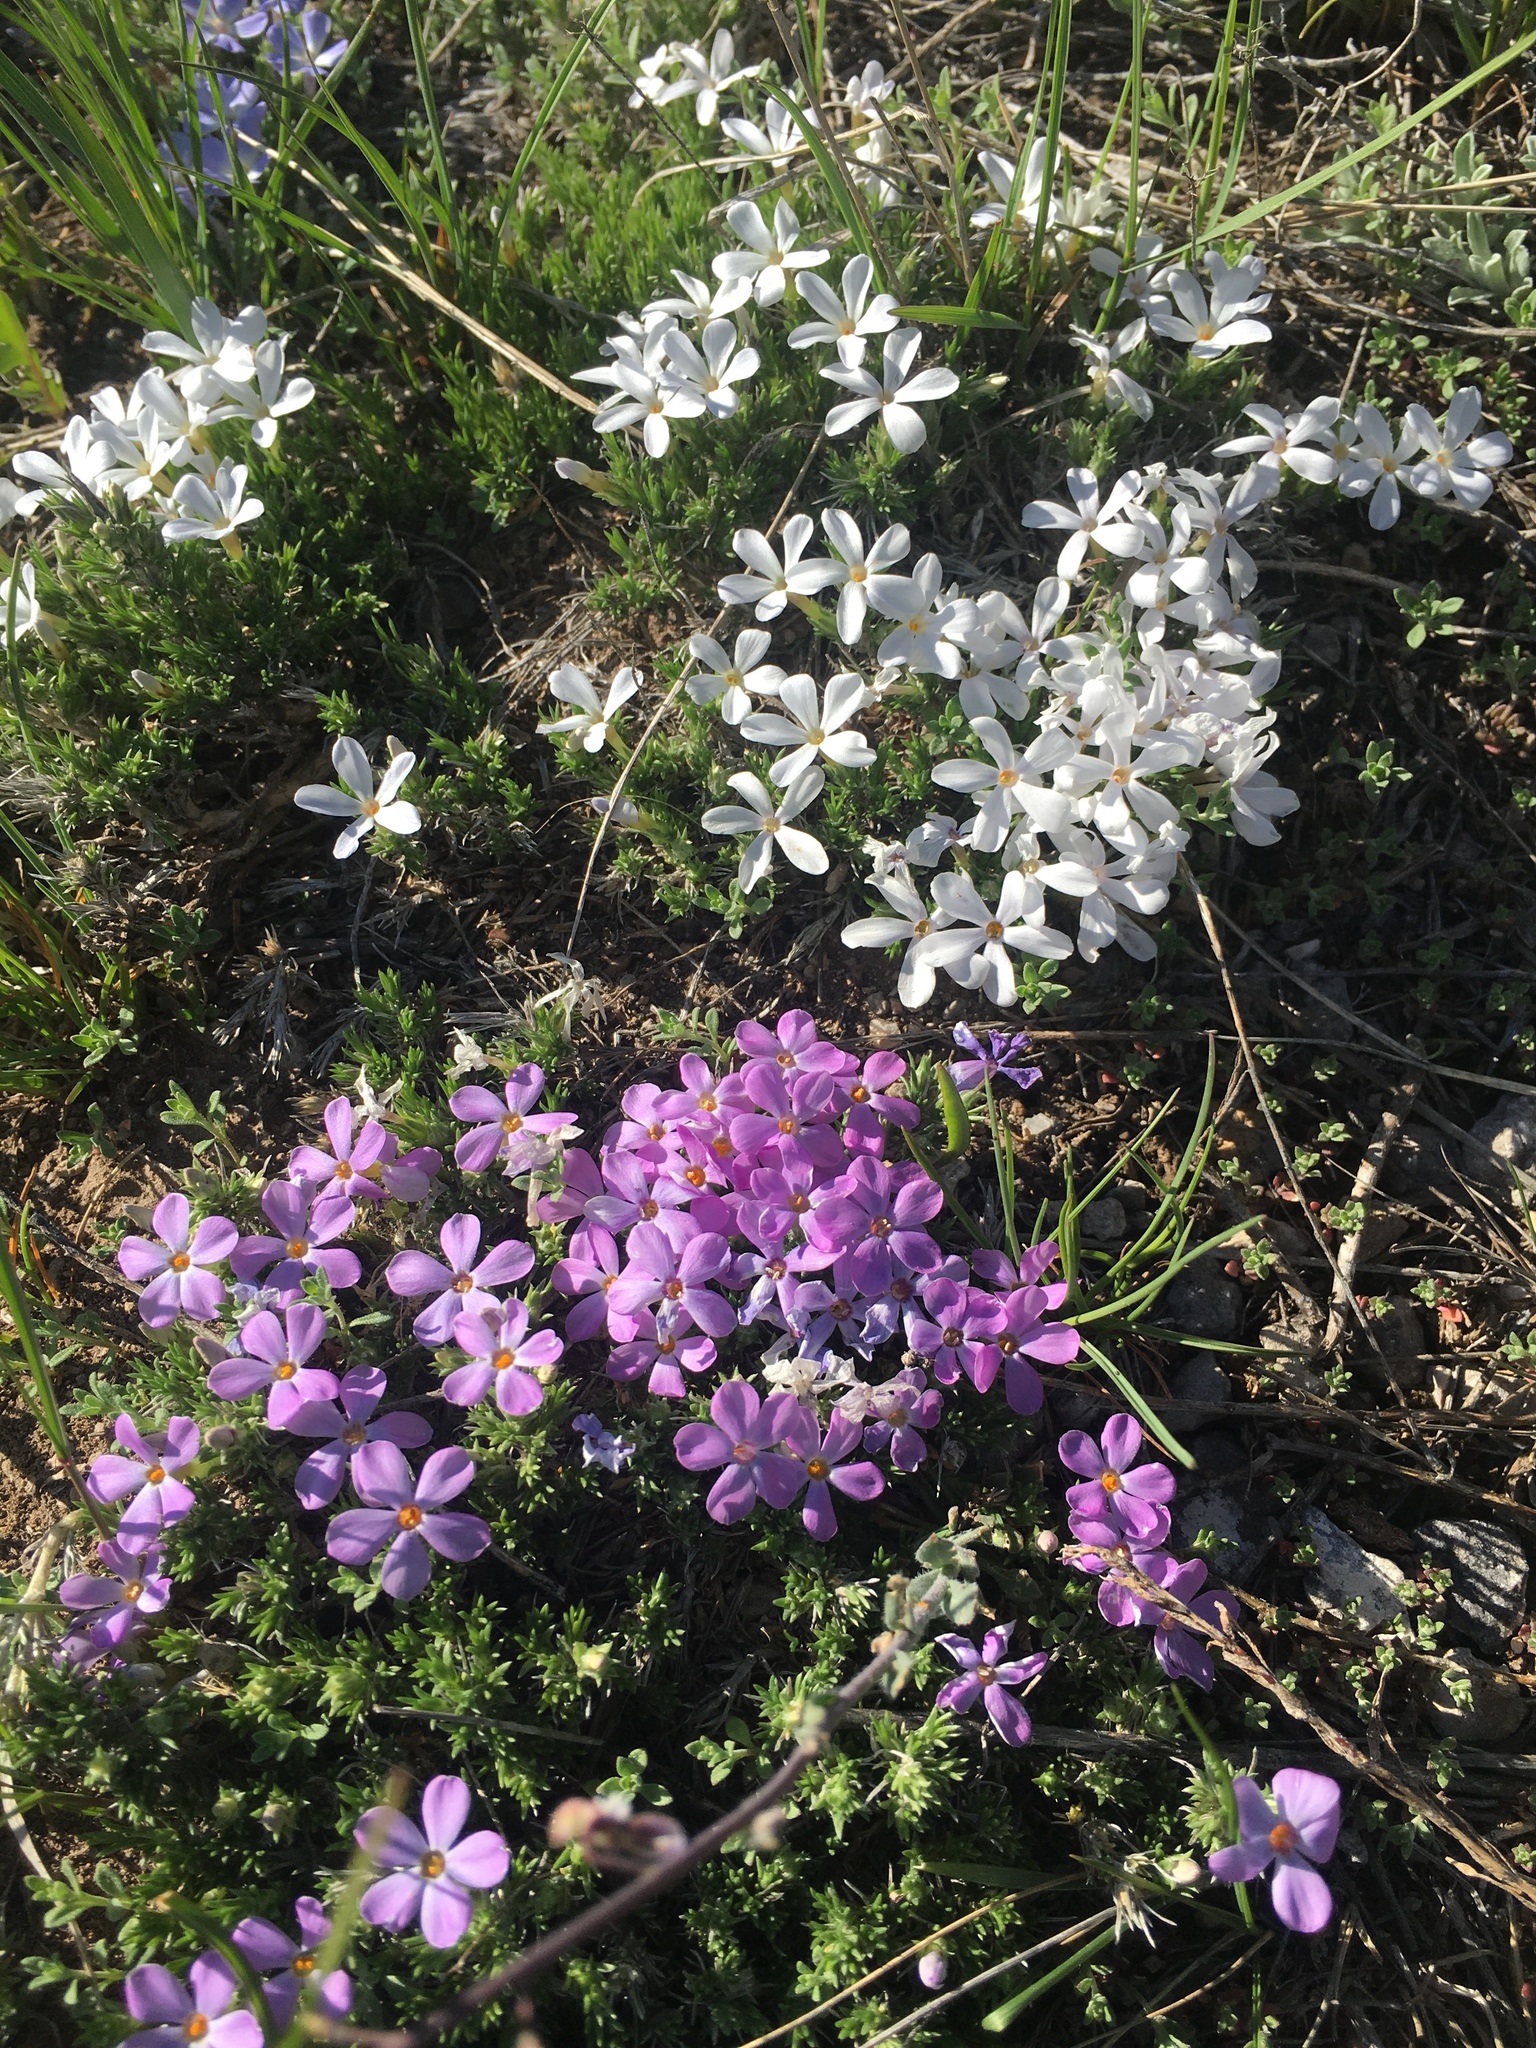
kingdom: Plantae
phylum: Tracheophyta
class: Magnoliopsida
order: Ericales
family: Polemoniaceae
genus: Phlox
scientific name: Phlox hoodii
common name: Moss phlox
